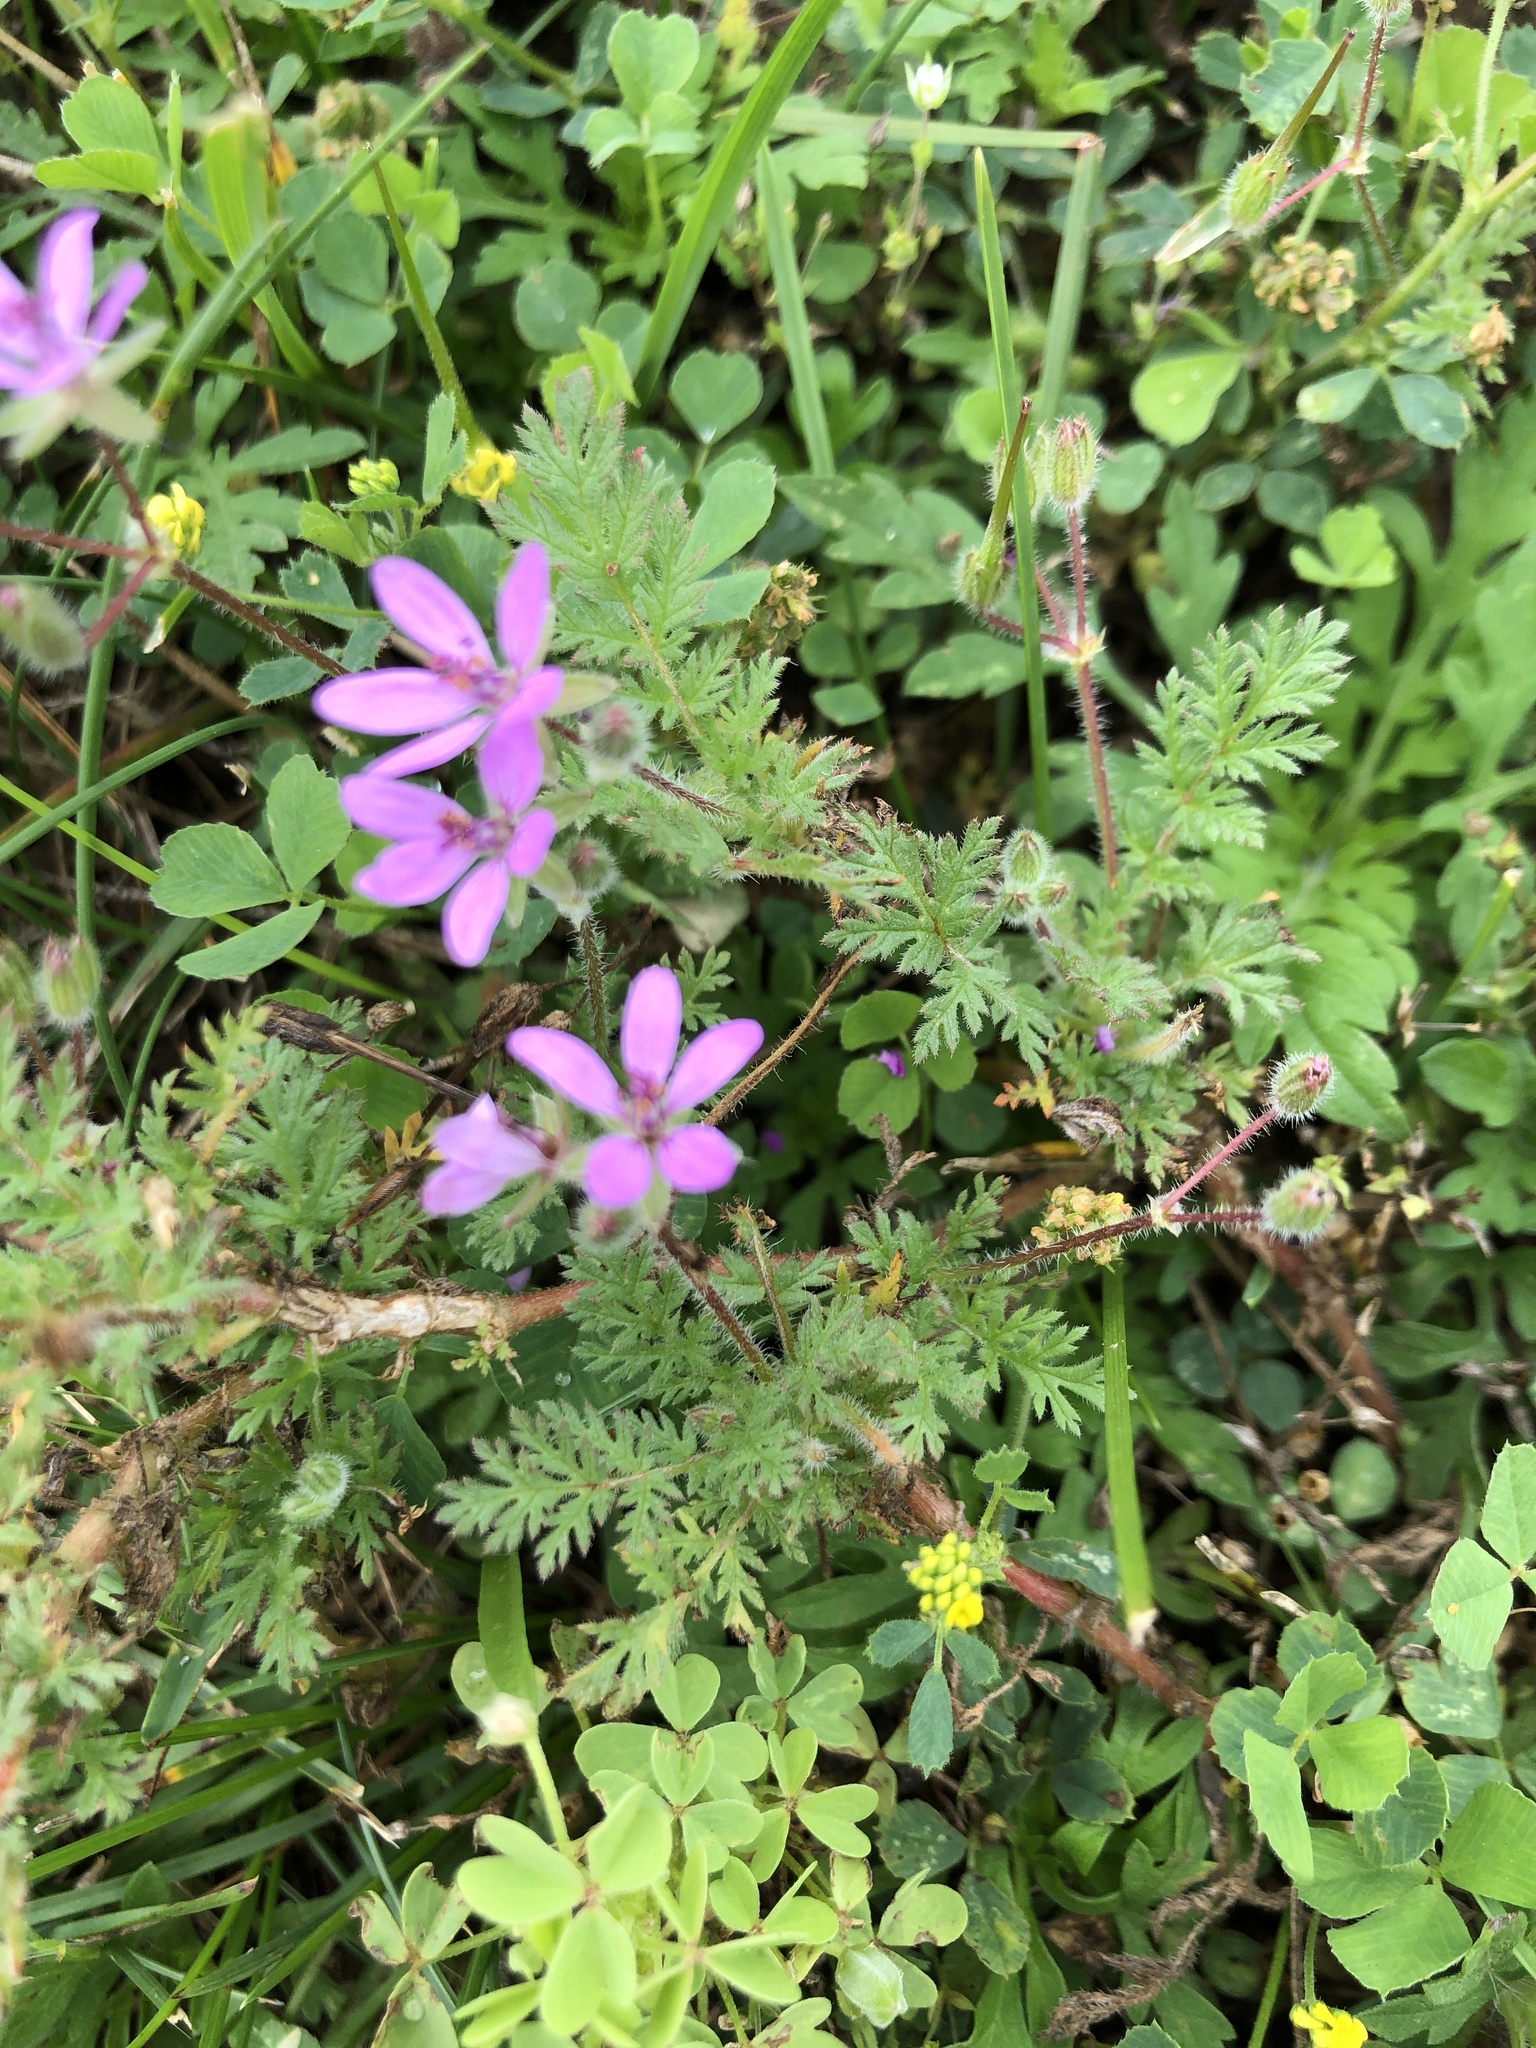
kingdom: Plantae
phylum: Tracheophyta
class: Magnoliopsida
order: Geraniales
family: Geraniaceae
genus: Erodium
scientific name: Erodium cicutarium
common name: Common stork's-bill
